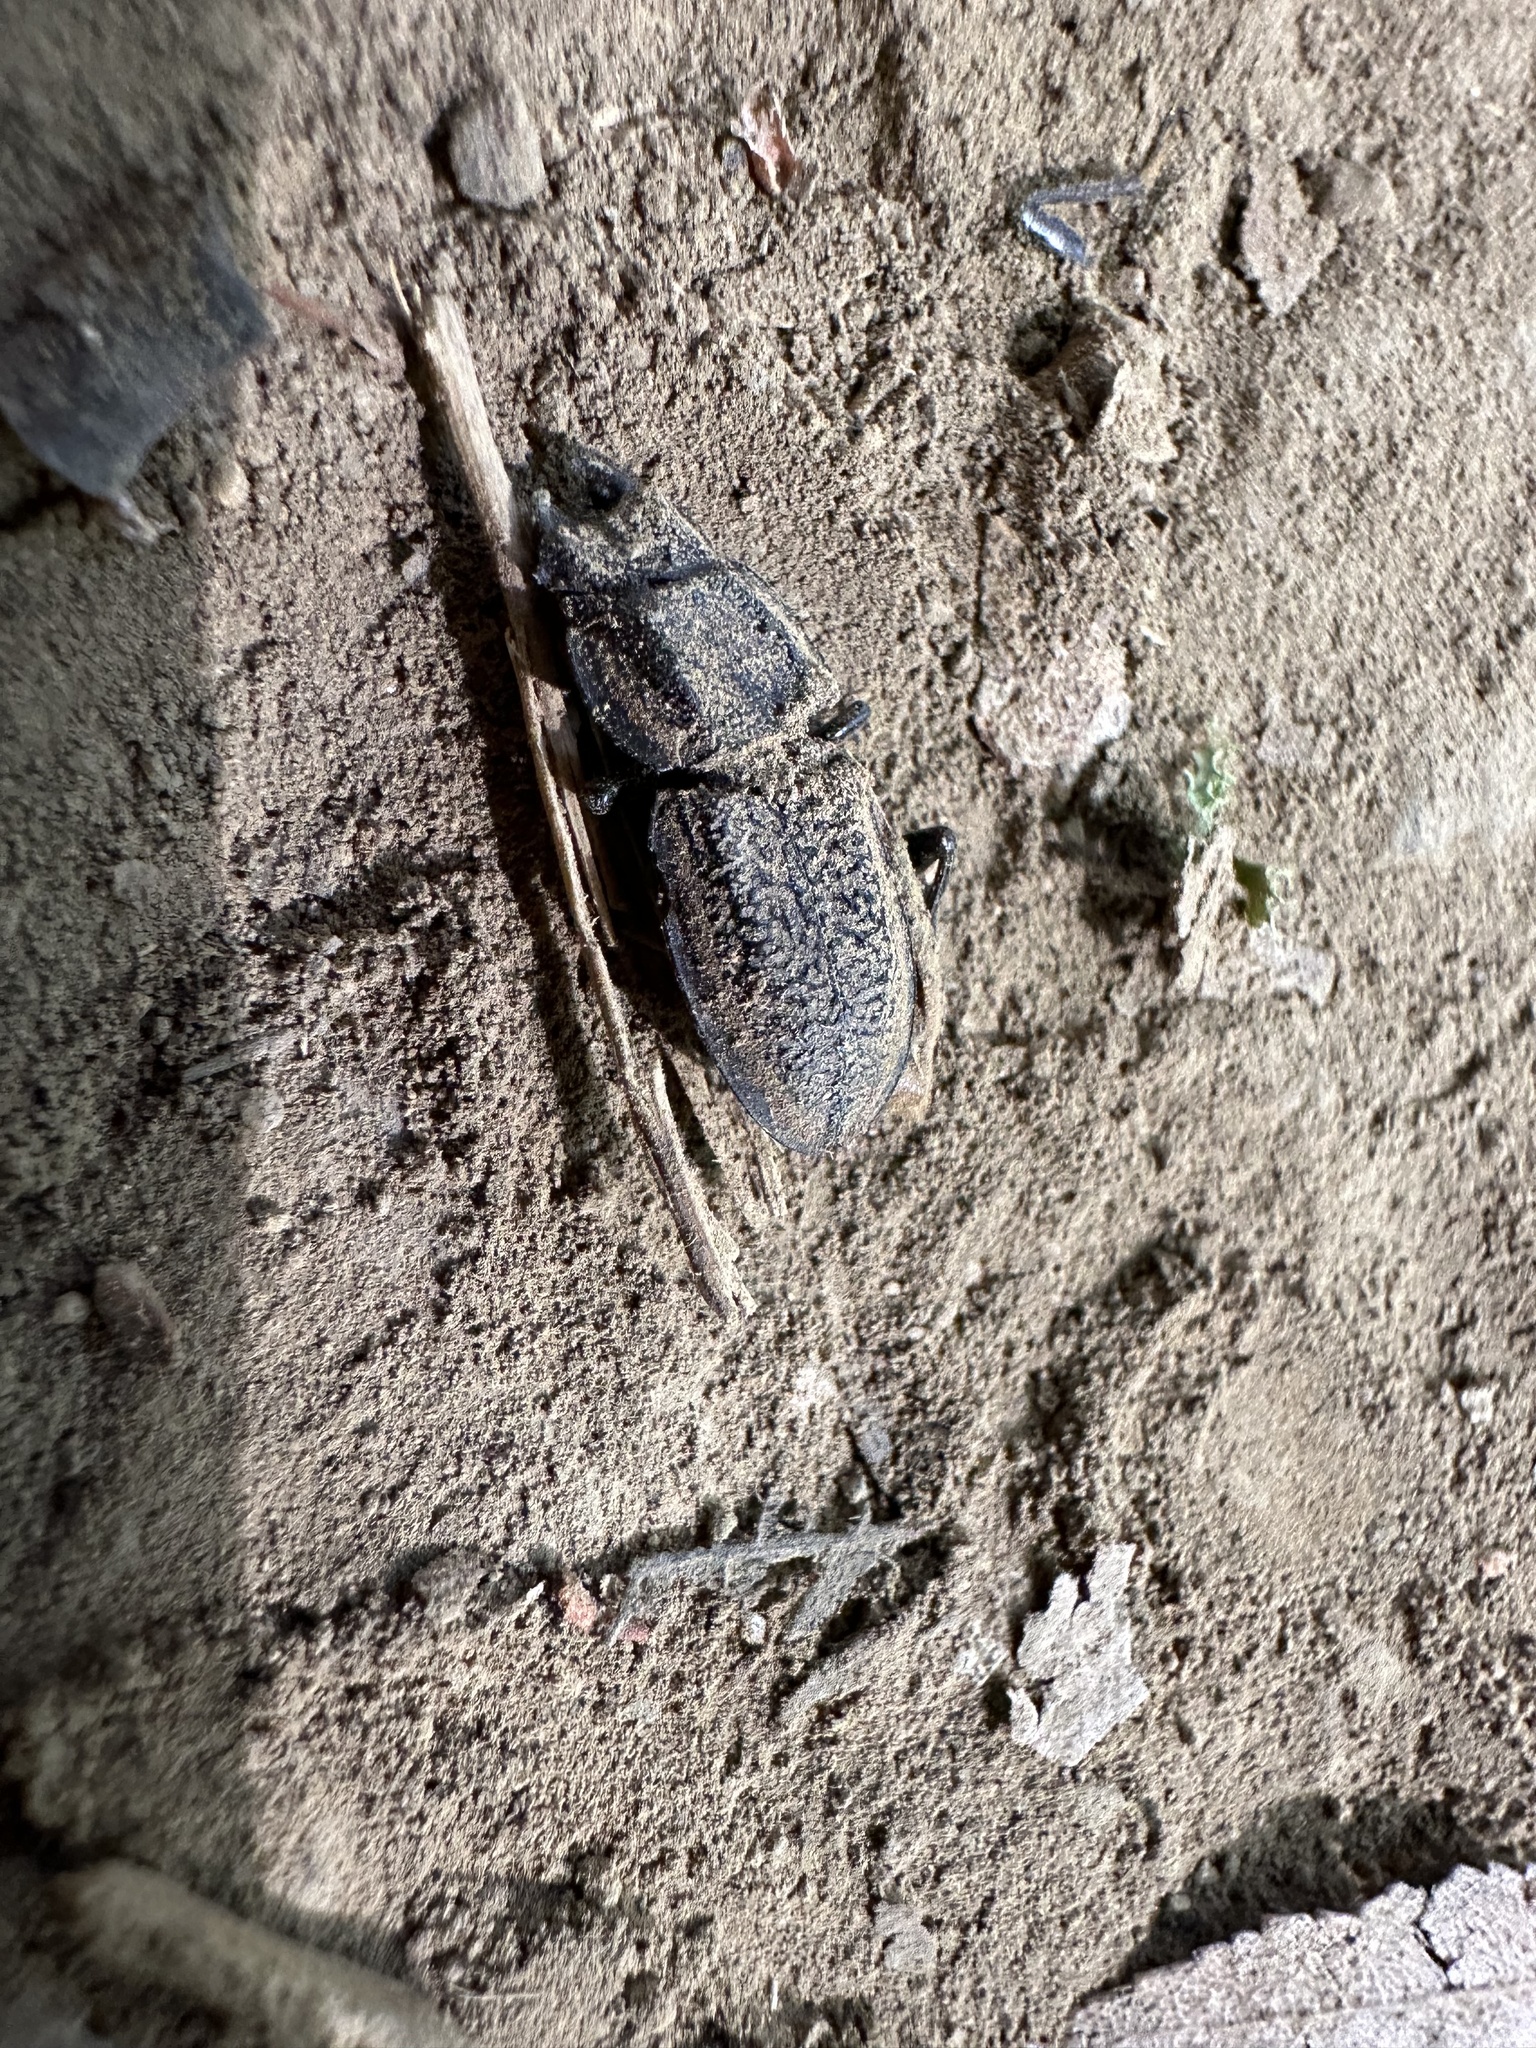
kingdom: Animalia
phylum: Arthropoda
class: Insecta
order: Coleoptera
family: Lucanidae
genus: Erichius
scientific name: Erichius caelatus
